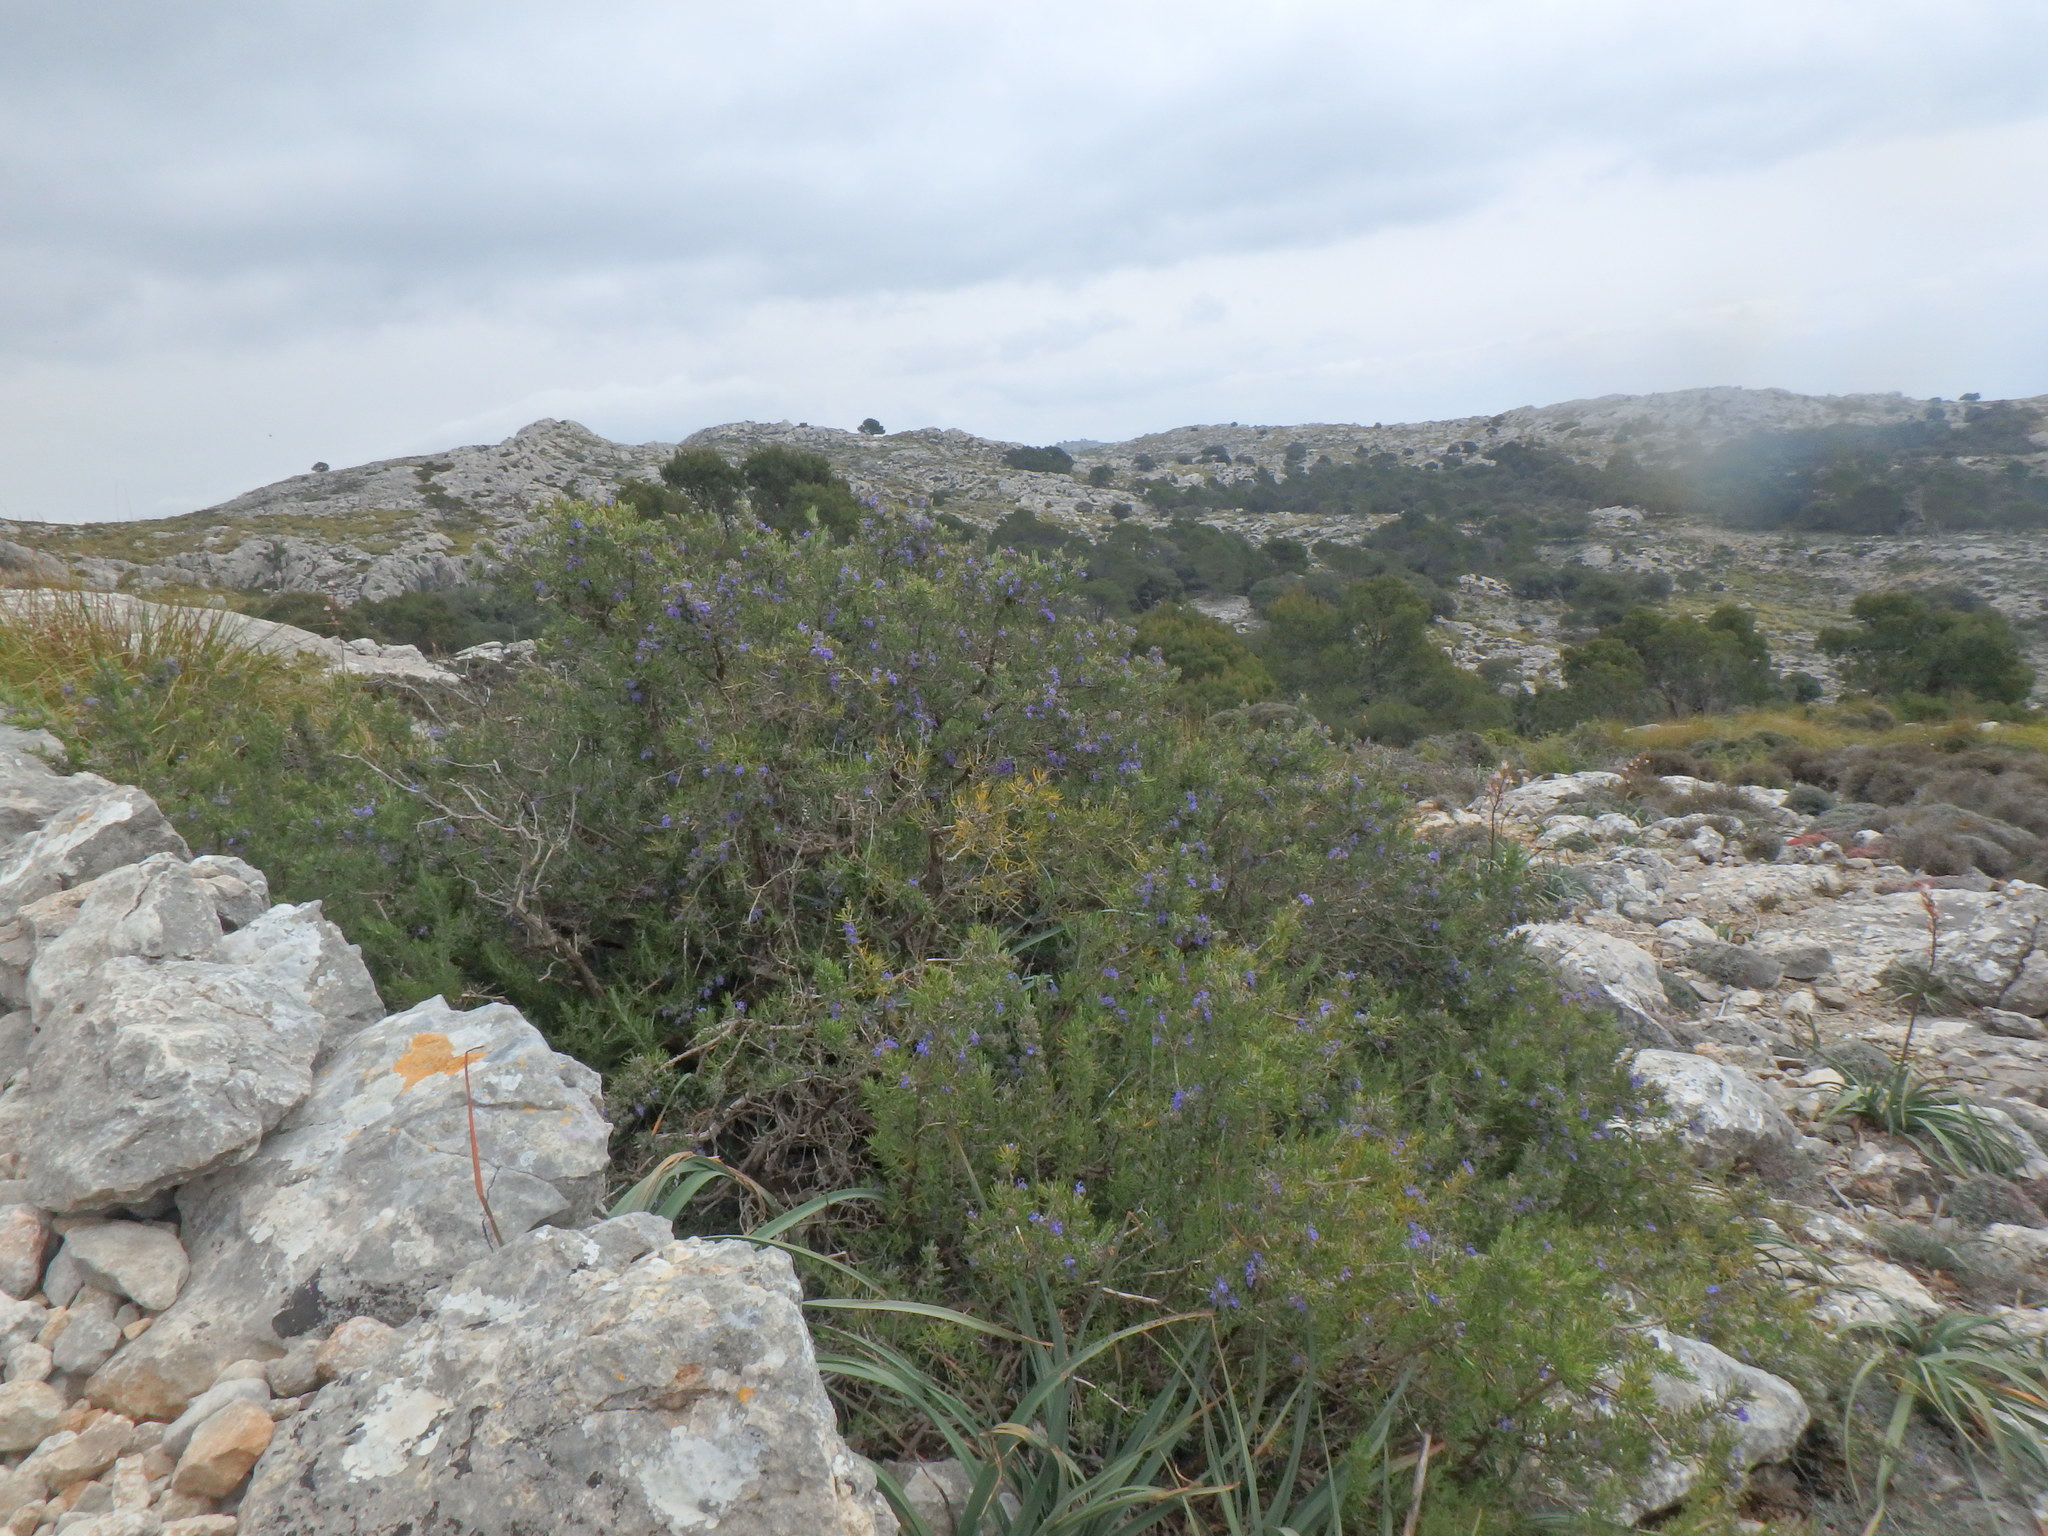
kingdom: Plantae
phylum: Tracheophyta
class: Magnoliopsida
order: Lamiales
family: Lamiaceae
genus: Salvia
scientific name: Salvia rosmarinus
